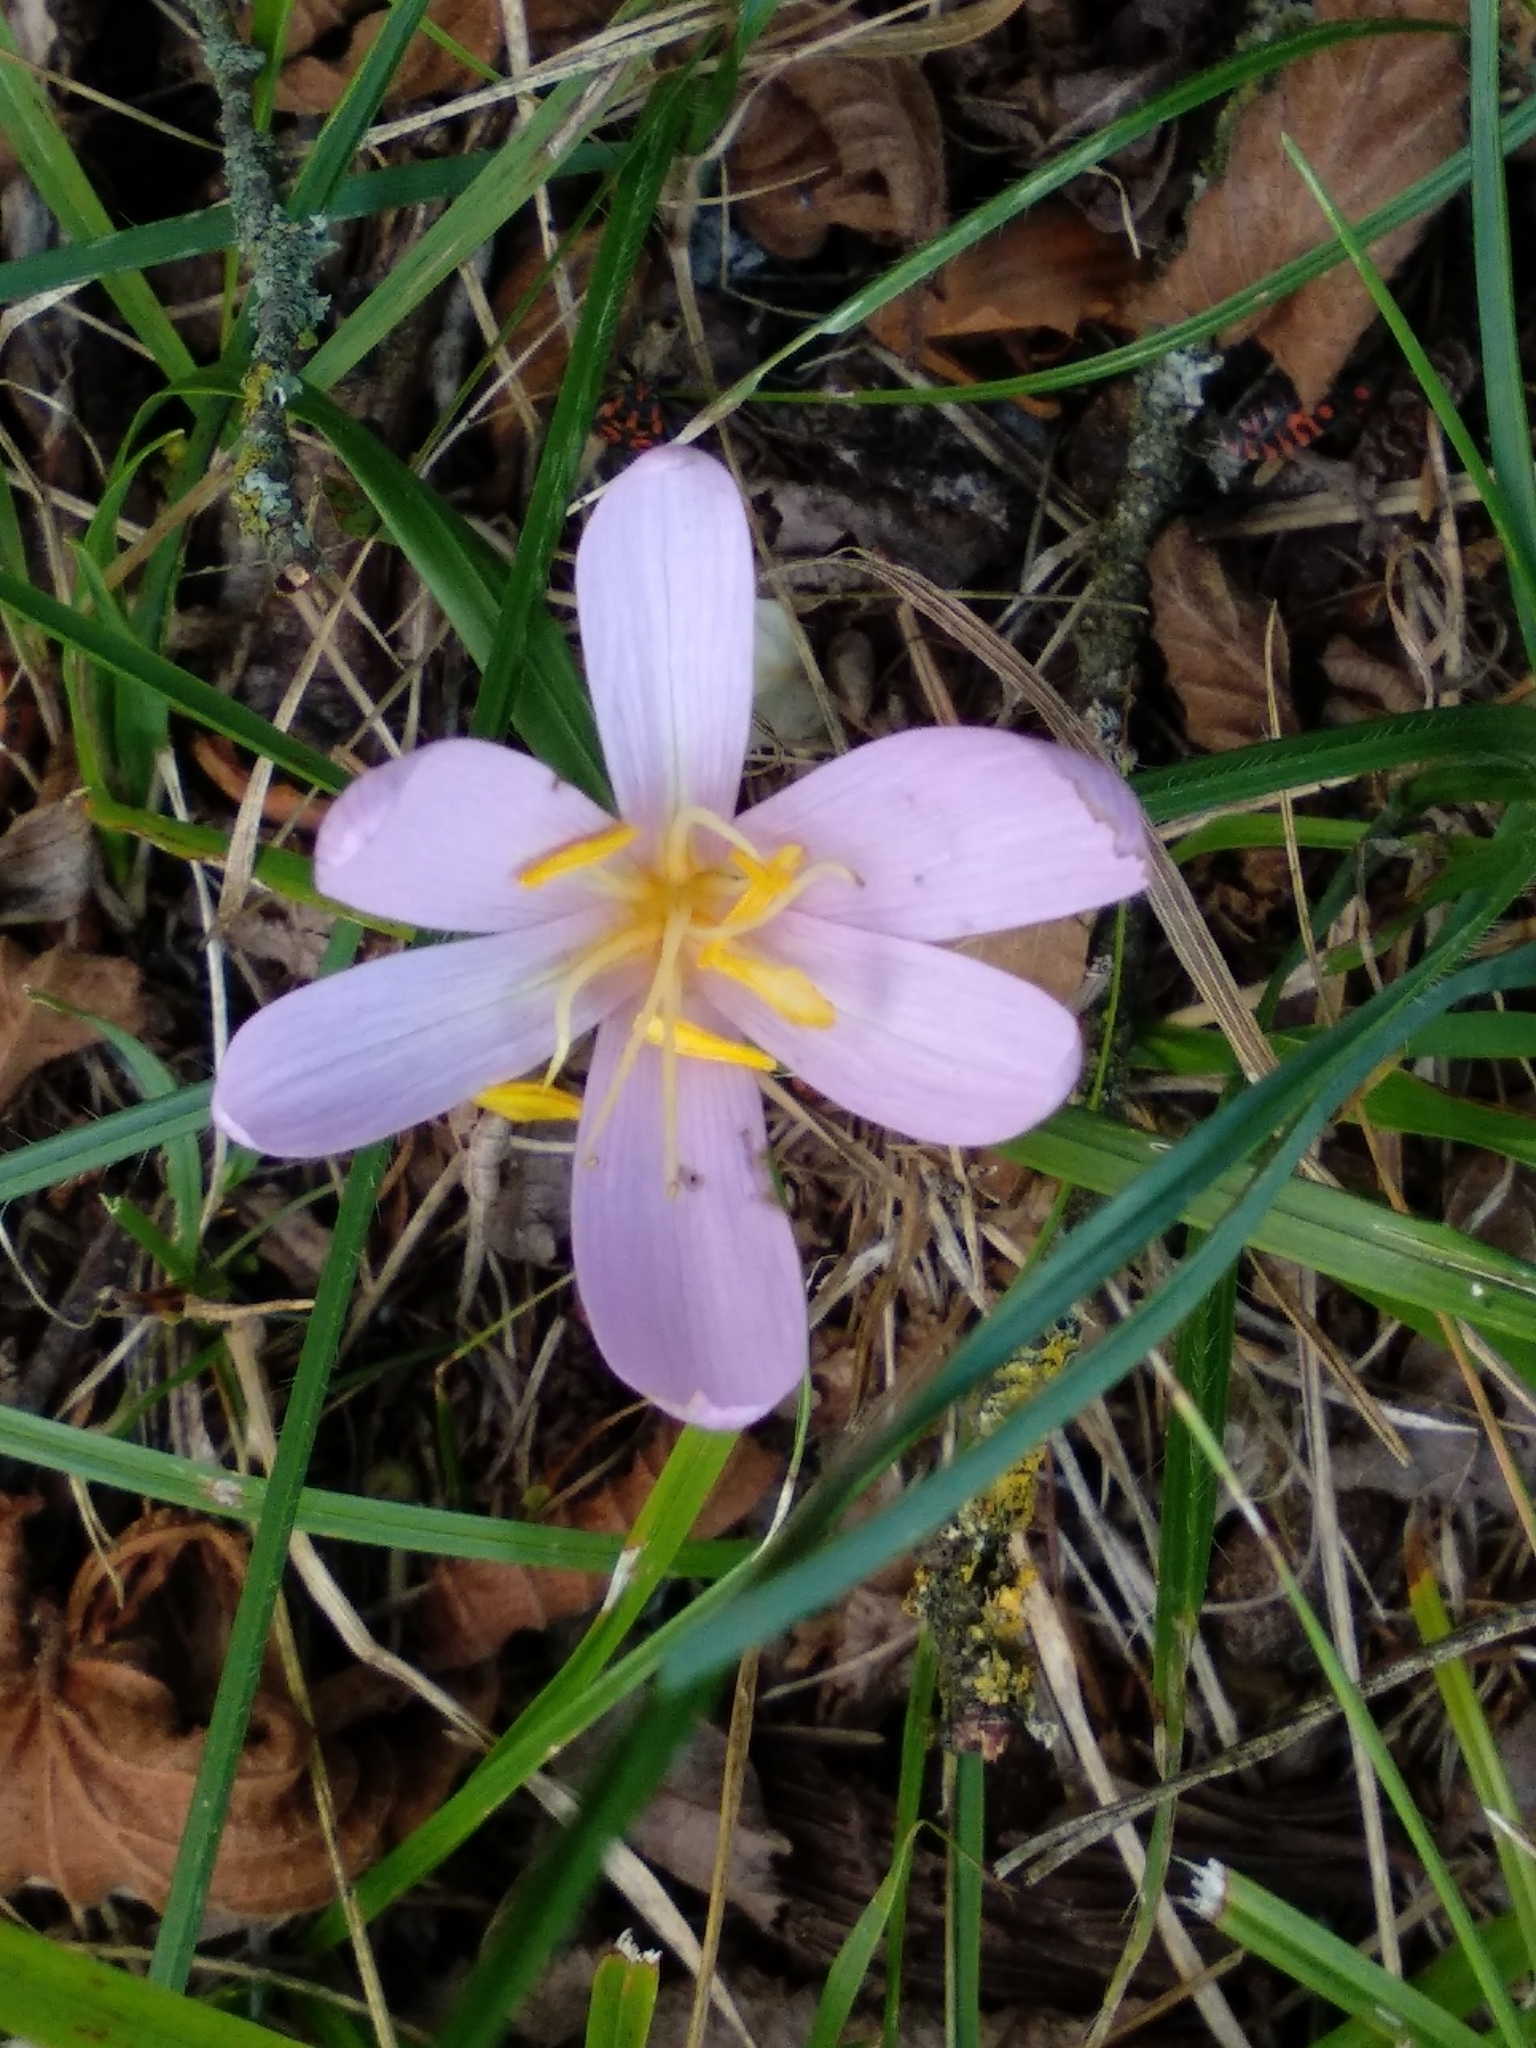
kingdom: Plantae
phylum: Tracheophyta
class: Liliopsida
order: Liliales
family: Colchicaceae
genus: Colchicum
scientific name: Colchicum autumnale
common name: Autumn crocus
